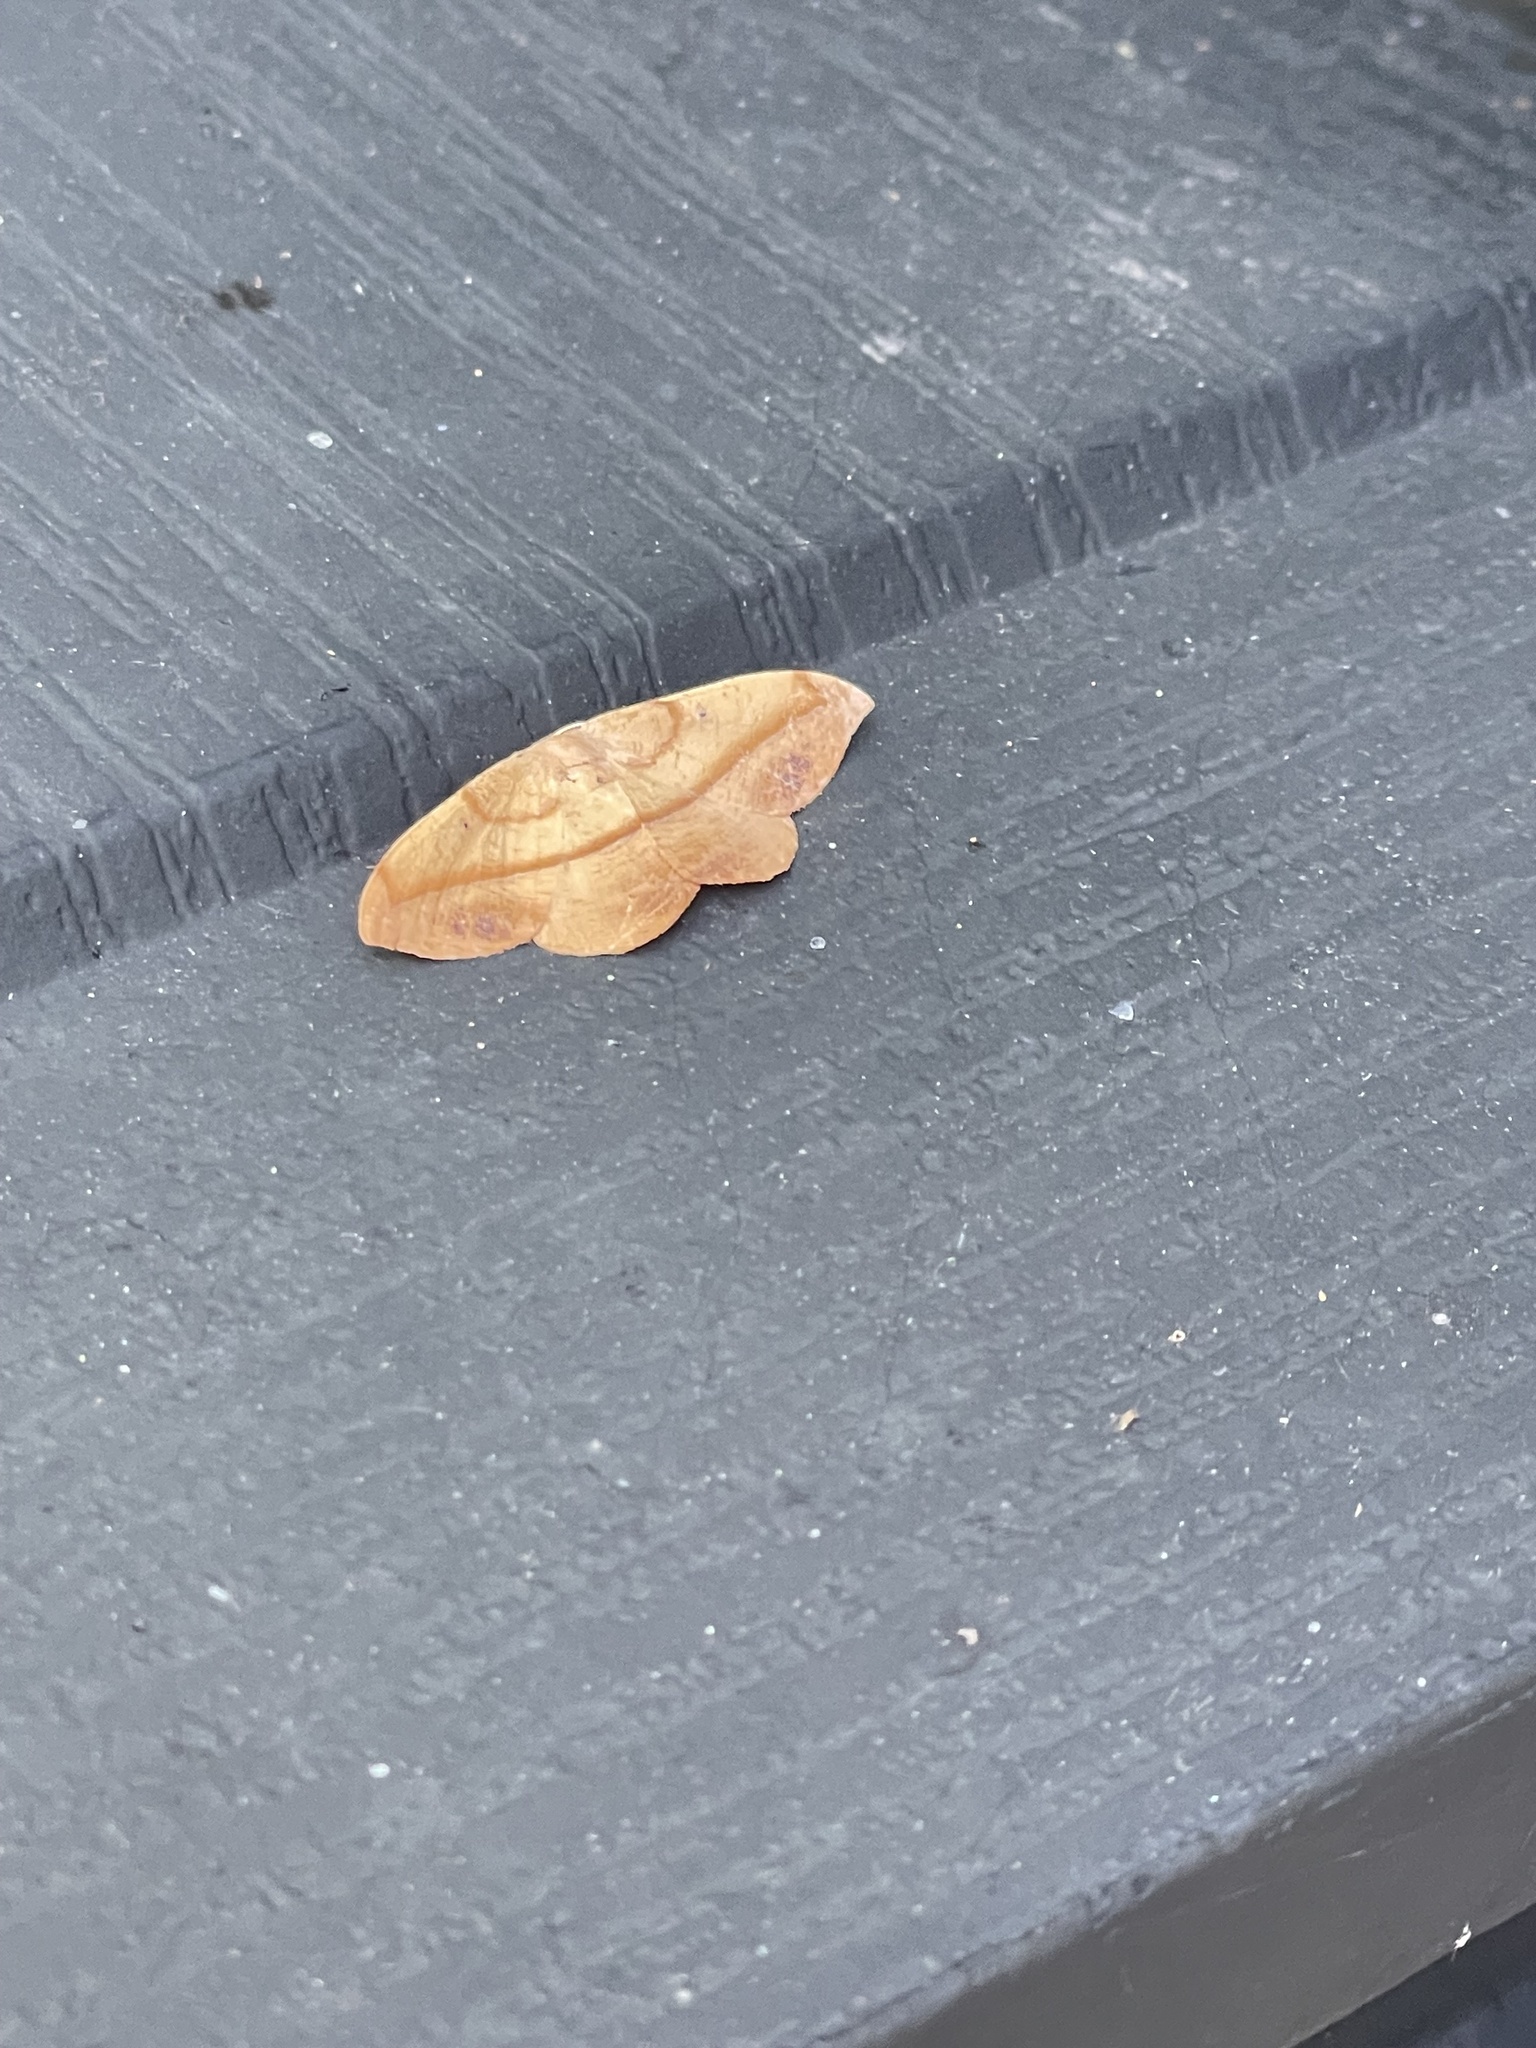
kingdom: Animalia
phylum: Arthropoda
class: Insecta
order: Lepidoptera
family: Geometridae
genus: Patalene
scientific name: Patalene olyzonaria
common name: Juniper geometer moth
